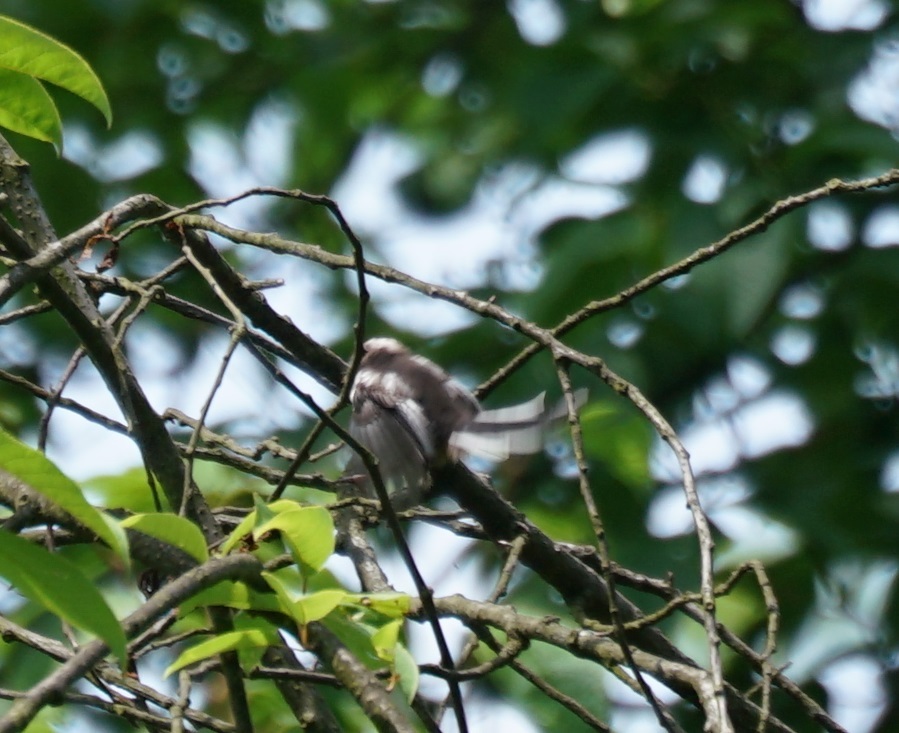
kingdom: Animalia
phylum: Chordata
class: Aves
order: Passeriformes
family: Aegithalidae
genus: Aegithalos
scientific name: Aegithalos caudatus
